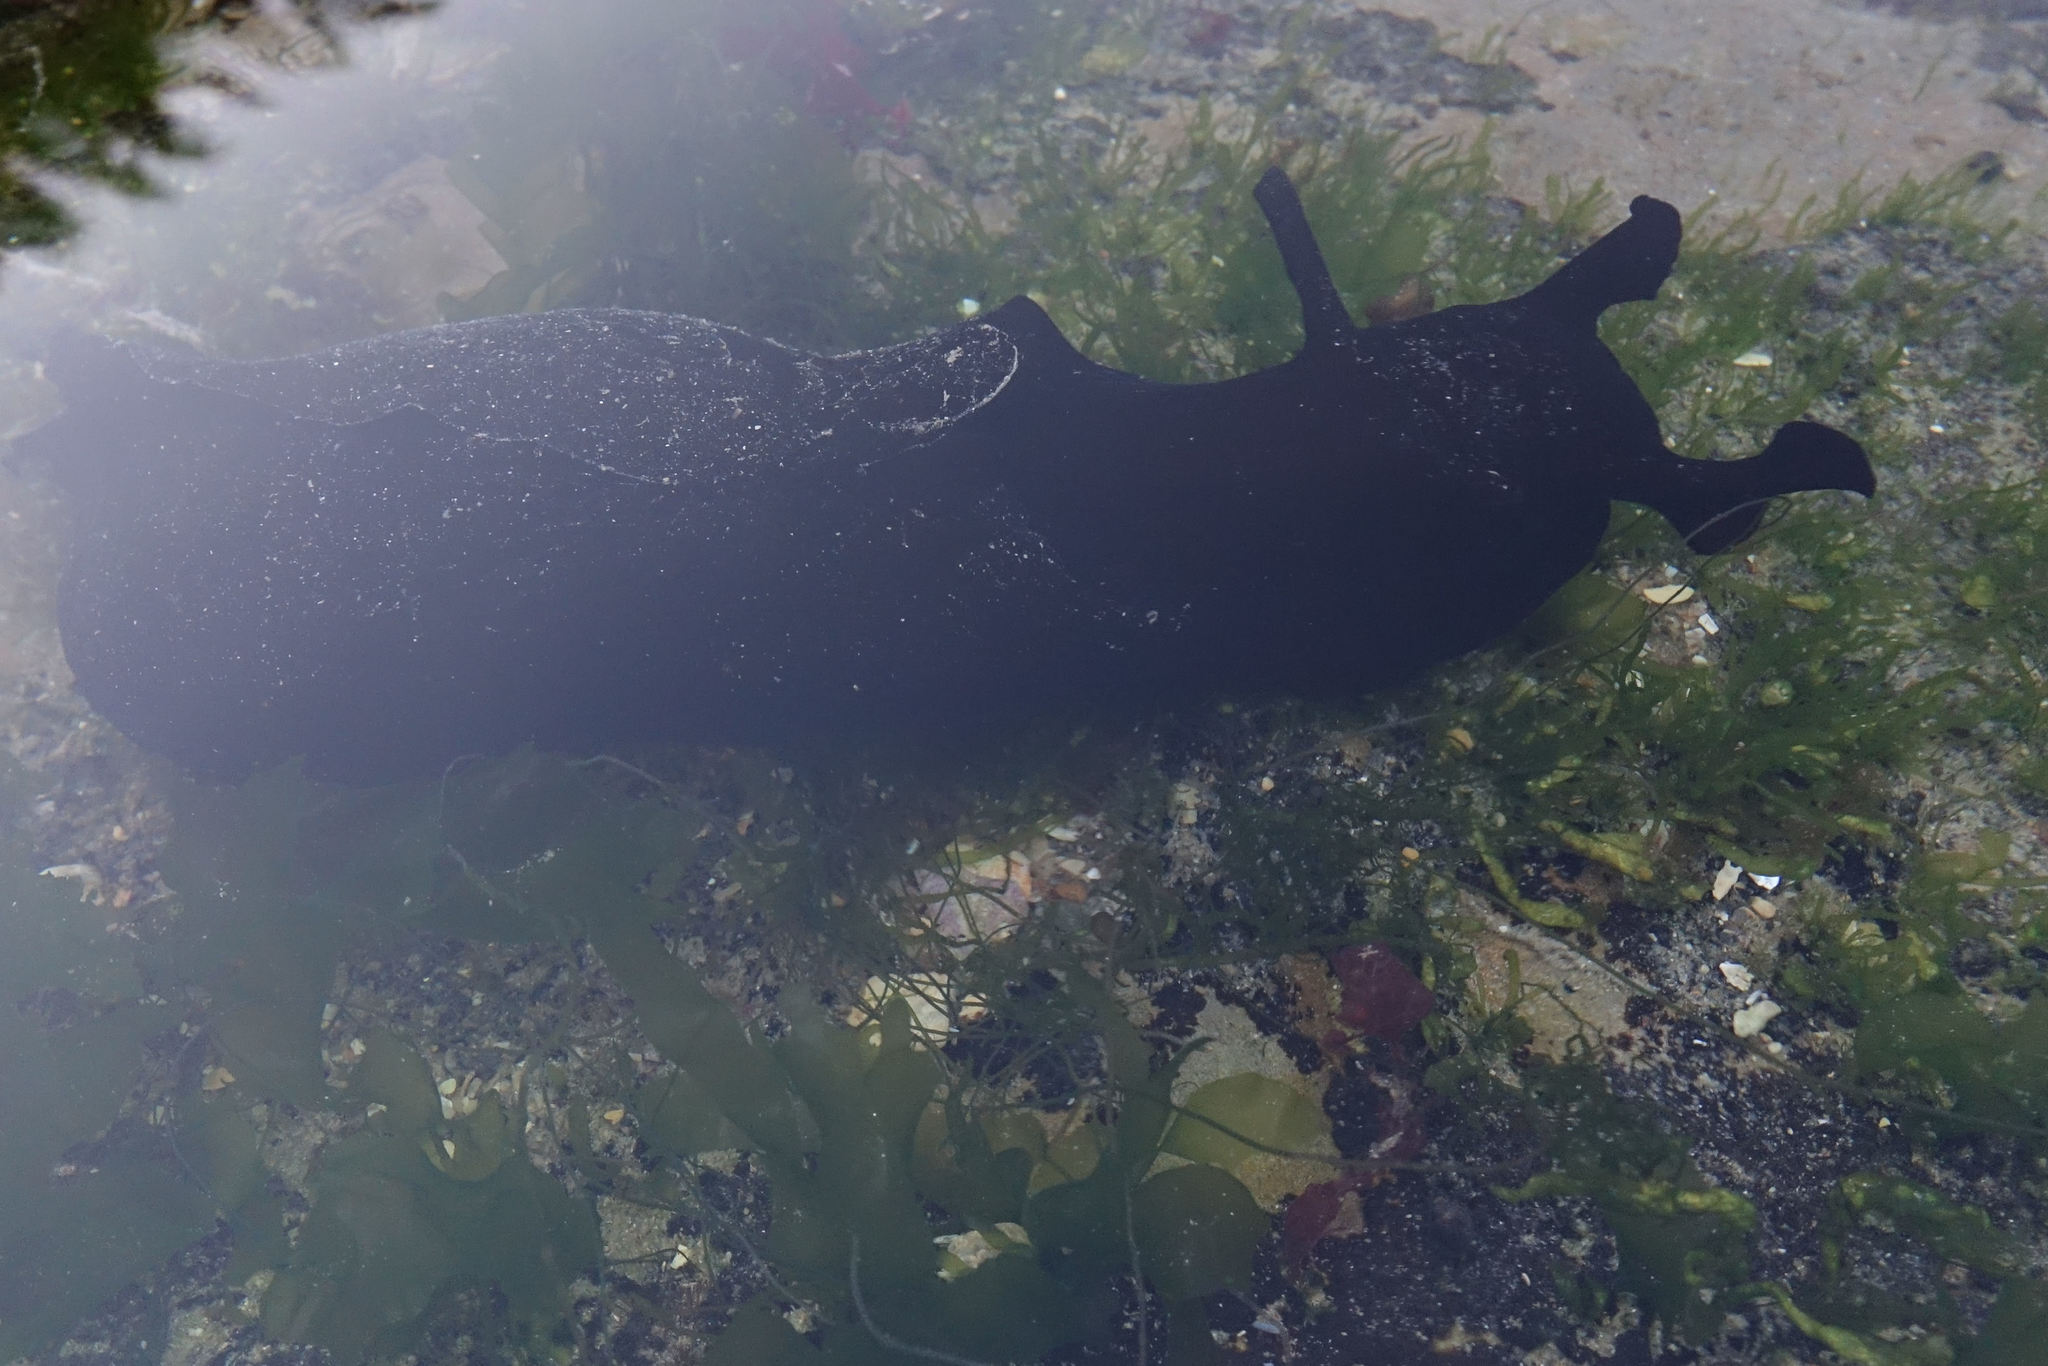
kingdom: Animalia
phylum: Mollusca
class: Gastropoda
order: Aplysiida
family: Aplysiidae
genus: Aplysia
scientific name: Aplysia juliana
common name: Walking sea hare
